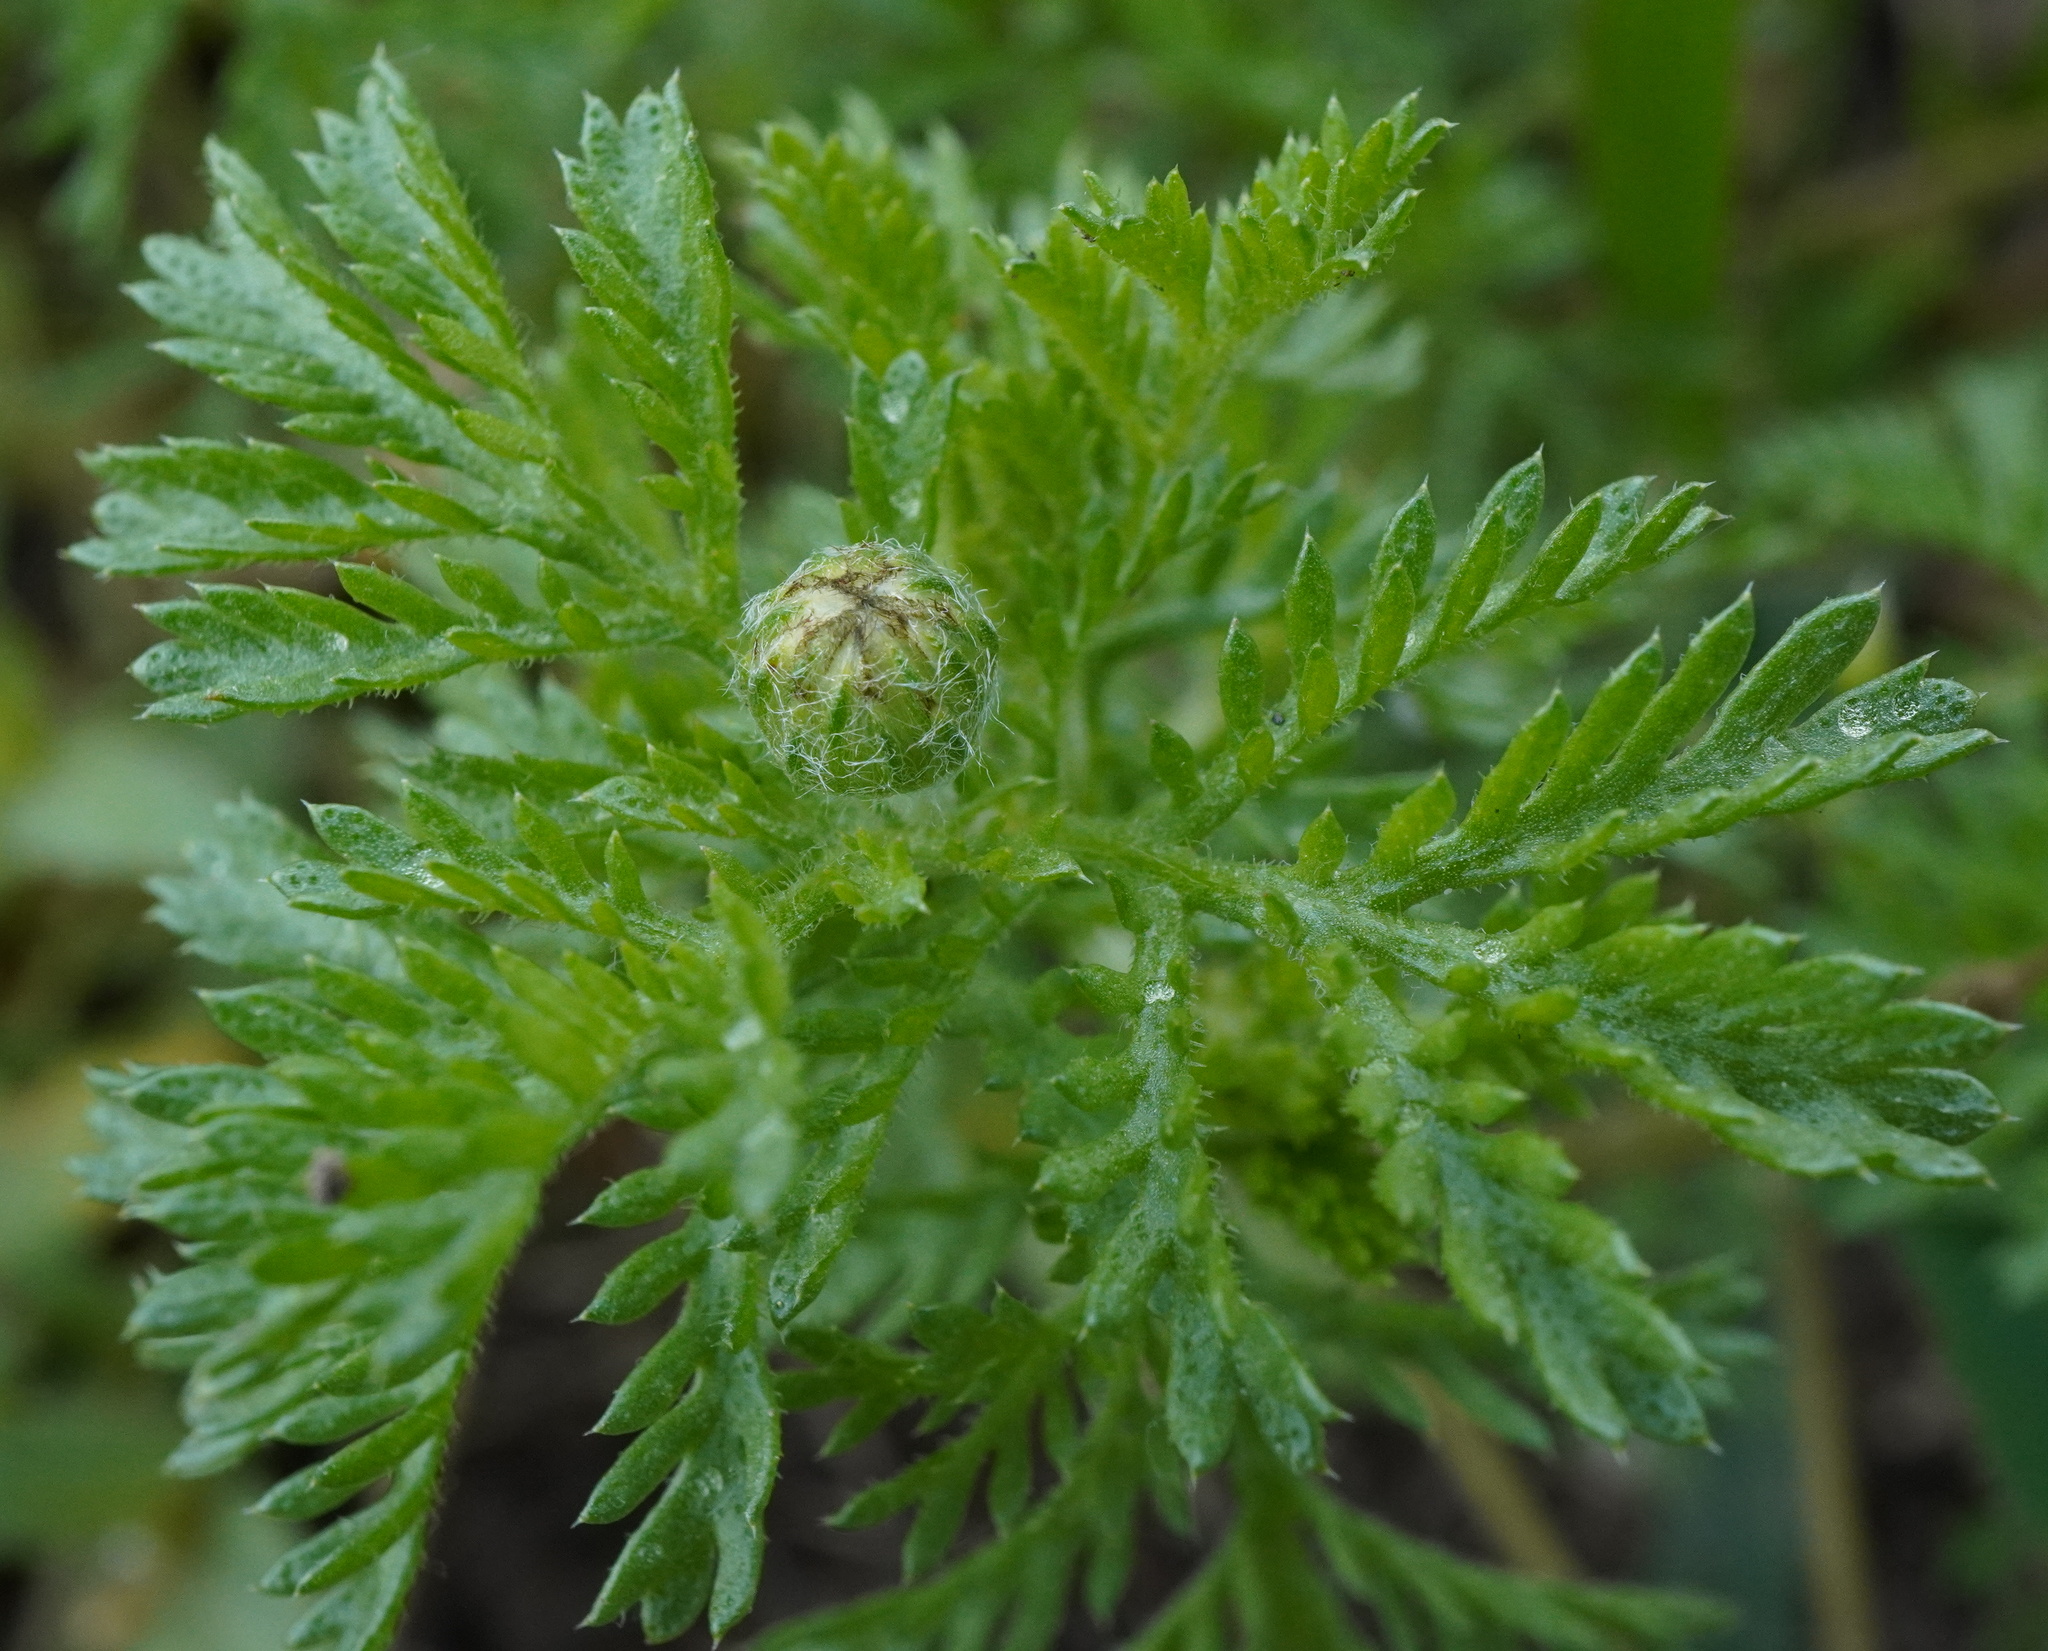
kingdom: Plantae
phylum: Tracheophyta
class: Magnoliopsida
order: Asterales
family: Asteraceae
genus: Cota
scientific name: Cota austriaca
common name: Austrian chamomile
